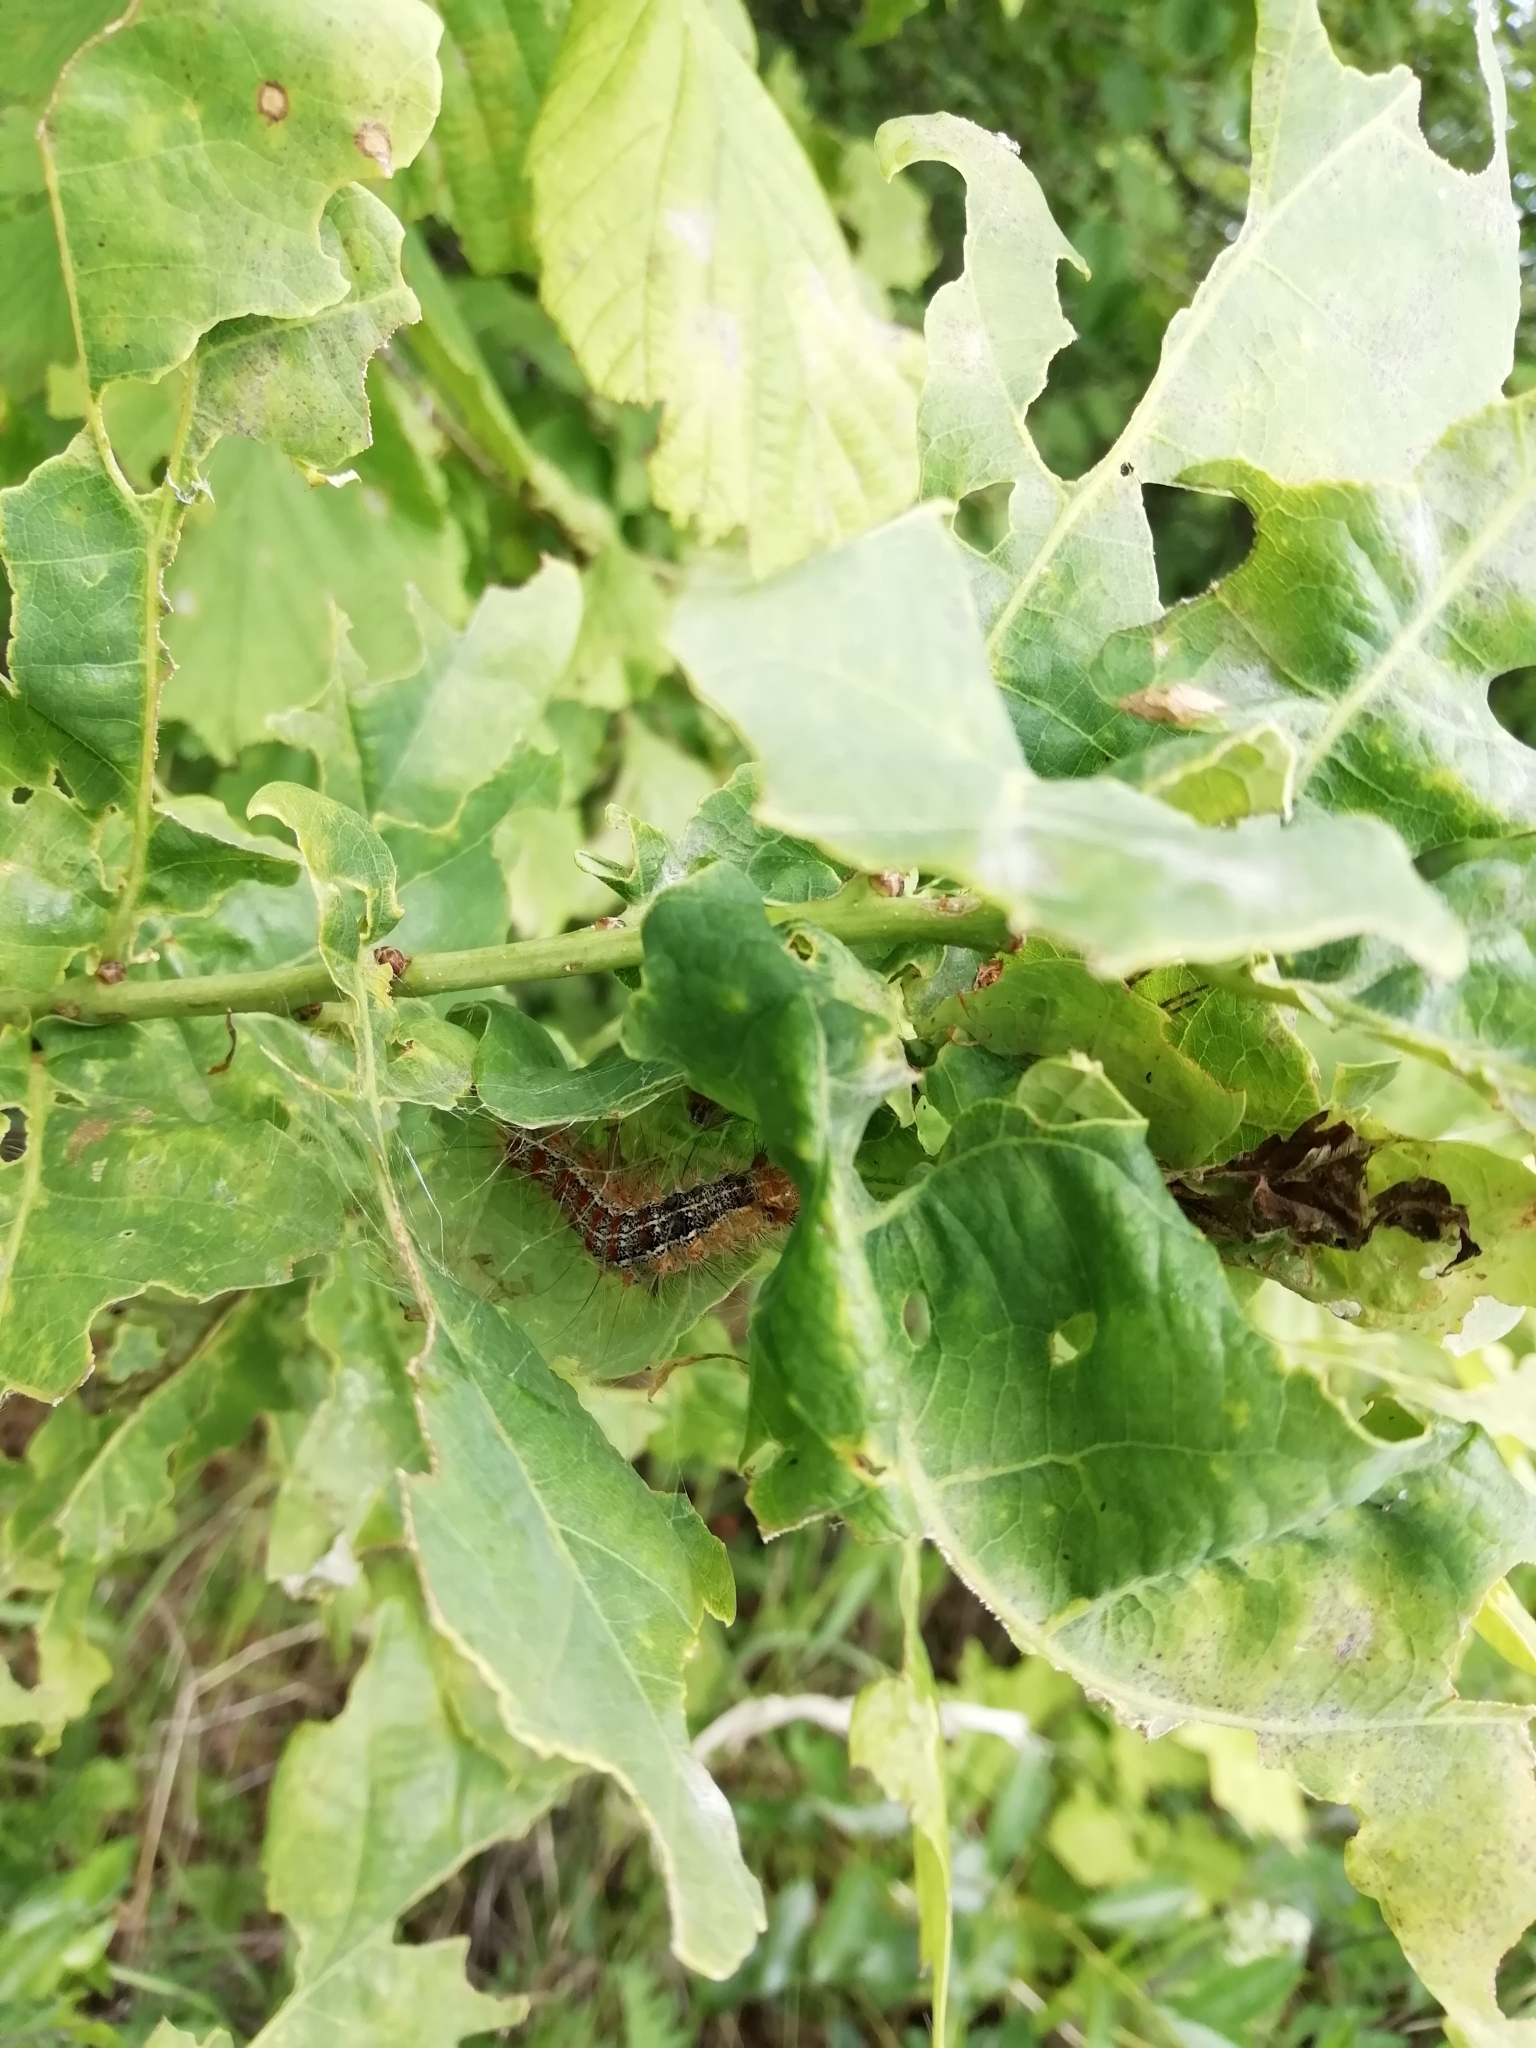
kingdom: Animalia
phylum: Arthropoda
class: Insecta
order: Lepidoptera
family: Erebidae
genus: Lymantria
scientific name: Lymantria dispar
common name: Gypsy moth
